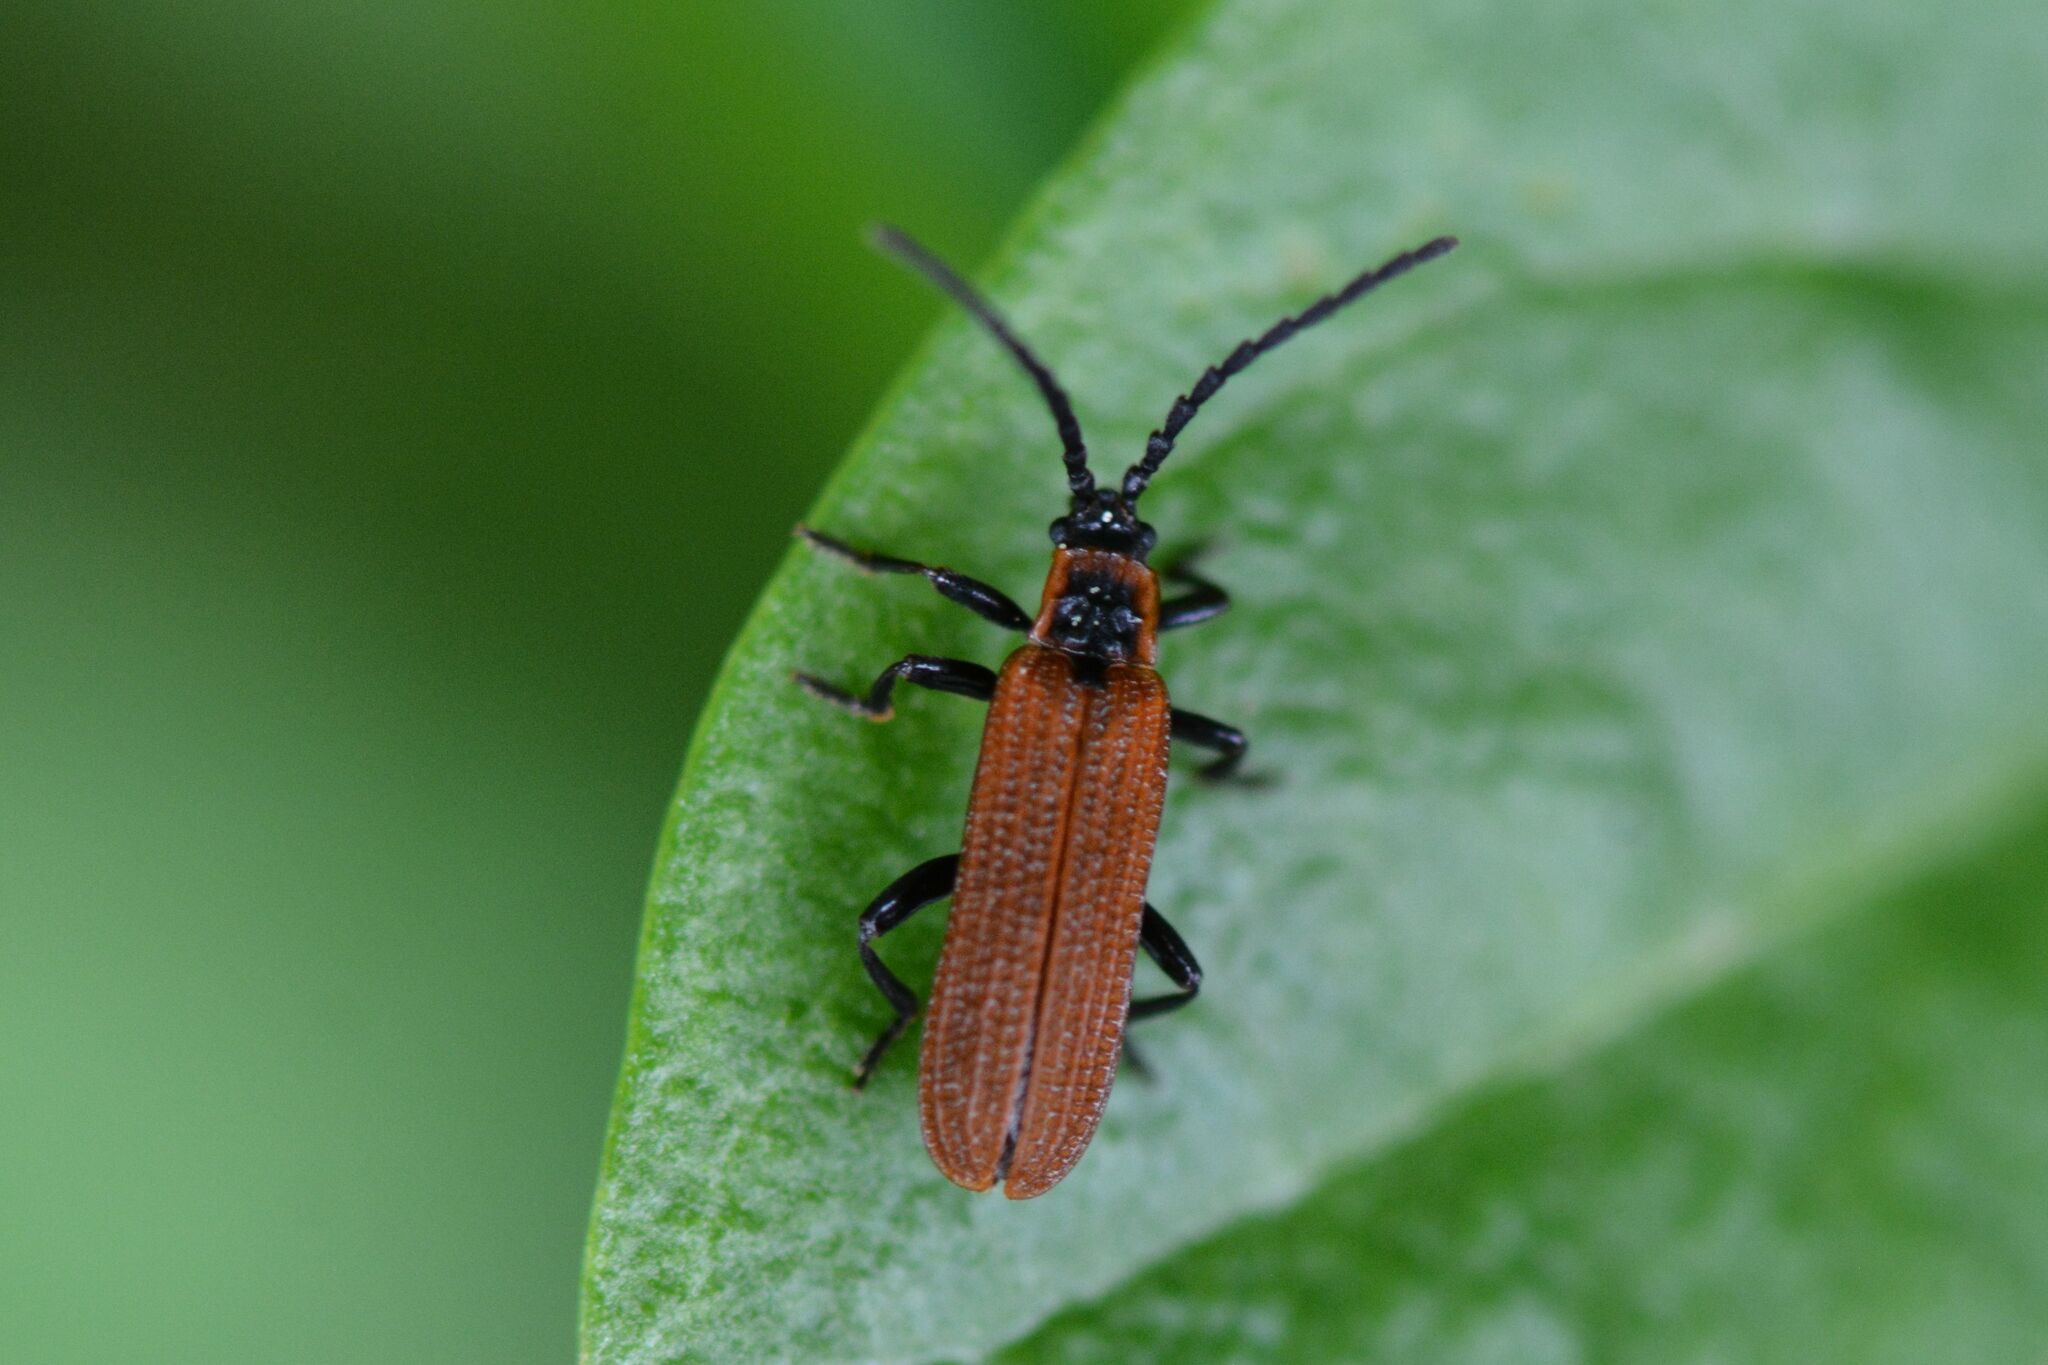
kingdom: Animalia
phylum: Arthropoda
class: Insecta
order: Coleoptera
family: Lycidae
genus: Erotides
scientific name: Erotides cosnardi
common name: Cosnard's net-winged beetle
